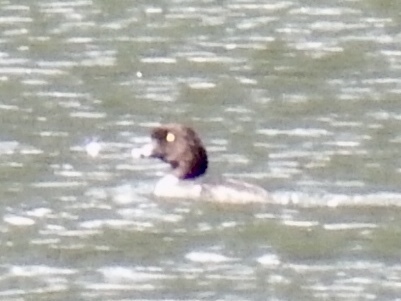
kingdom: Animalia
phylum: Chordata
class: Aves
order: Anseriformes
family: Anatidae
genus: Bucephala
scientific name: Bucephala islandica
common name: Barrow's goldeneye
